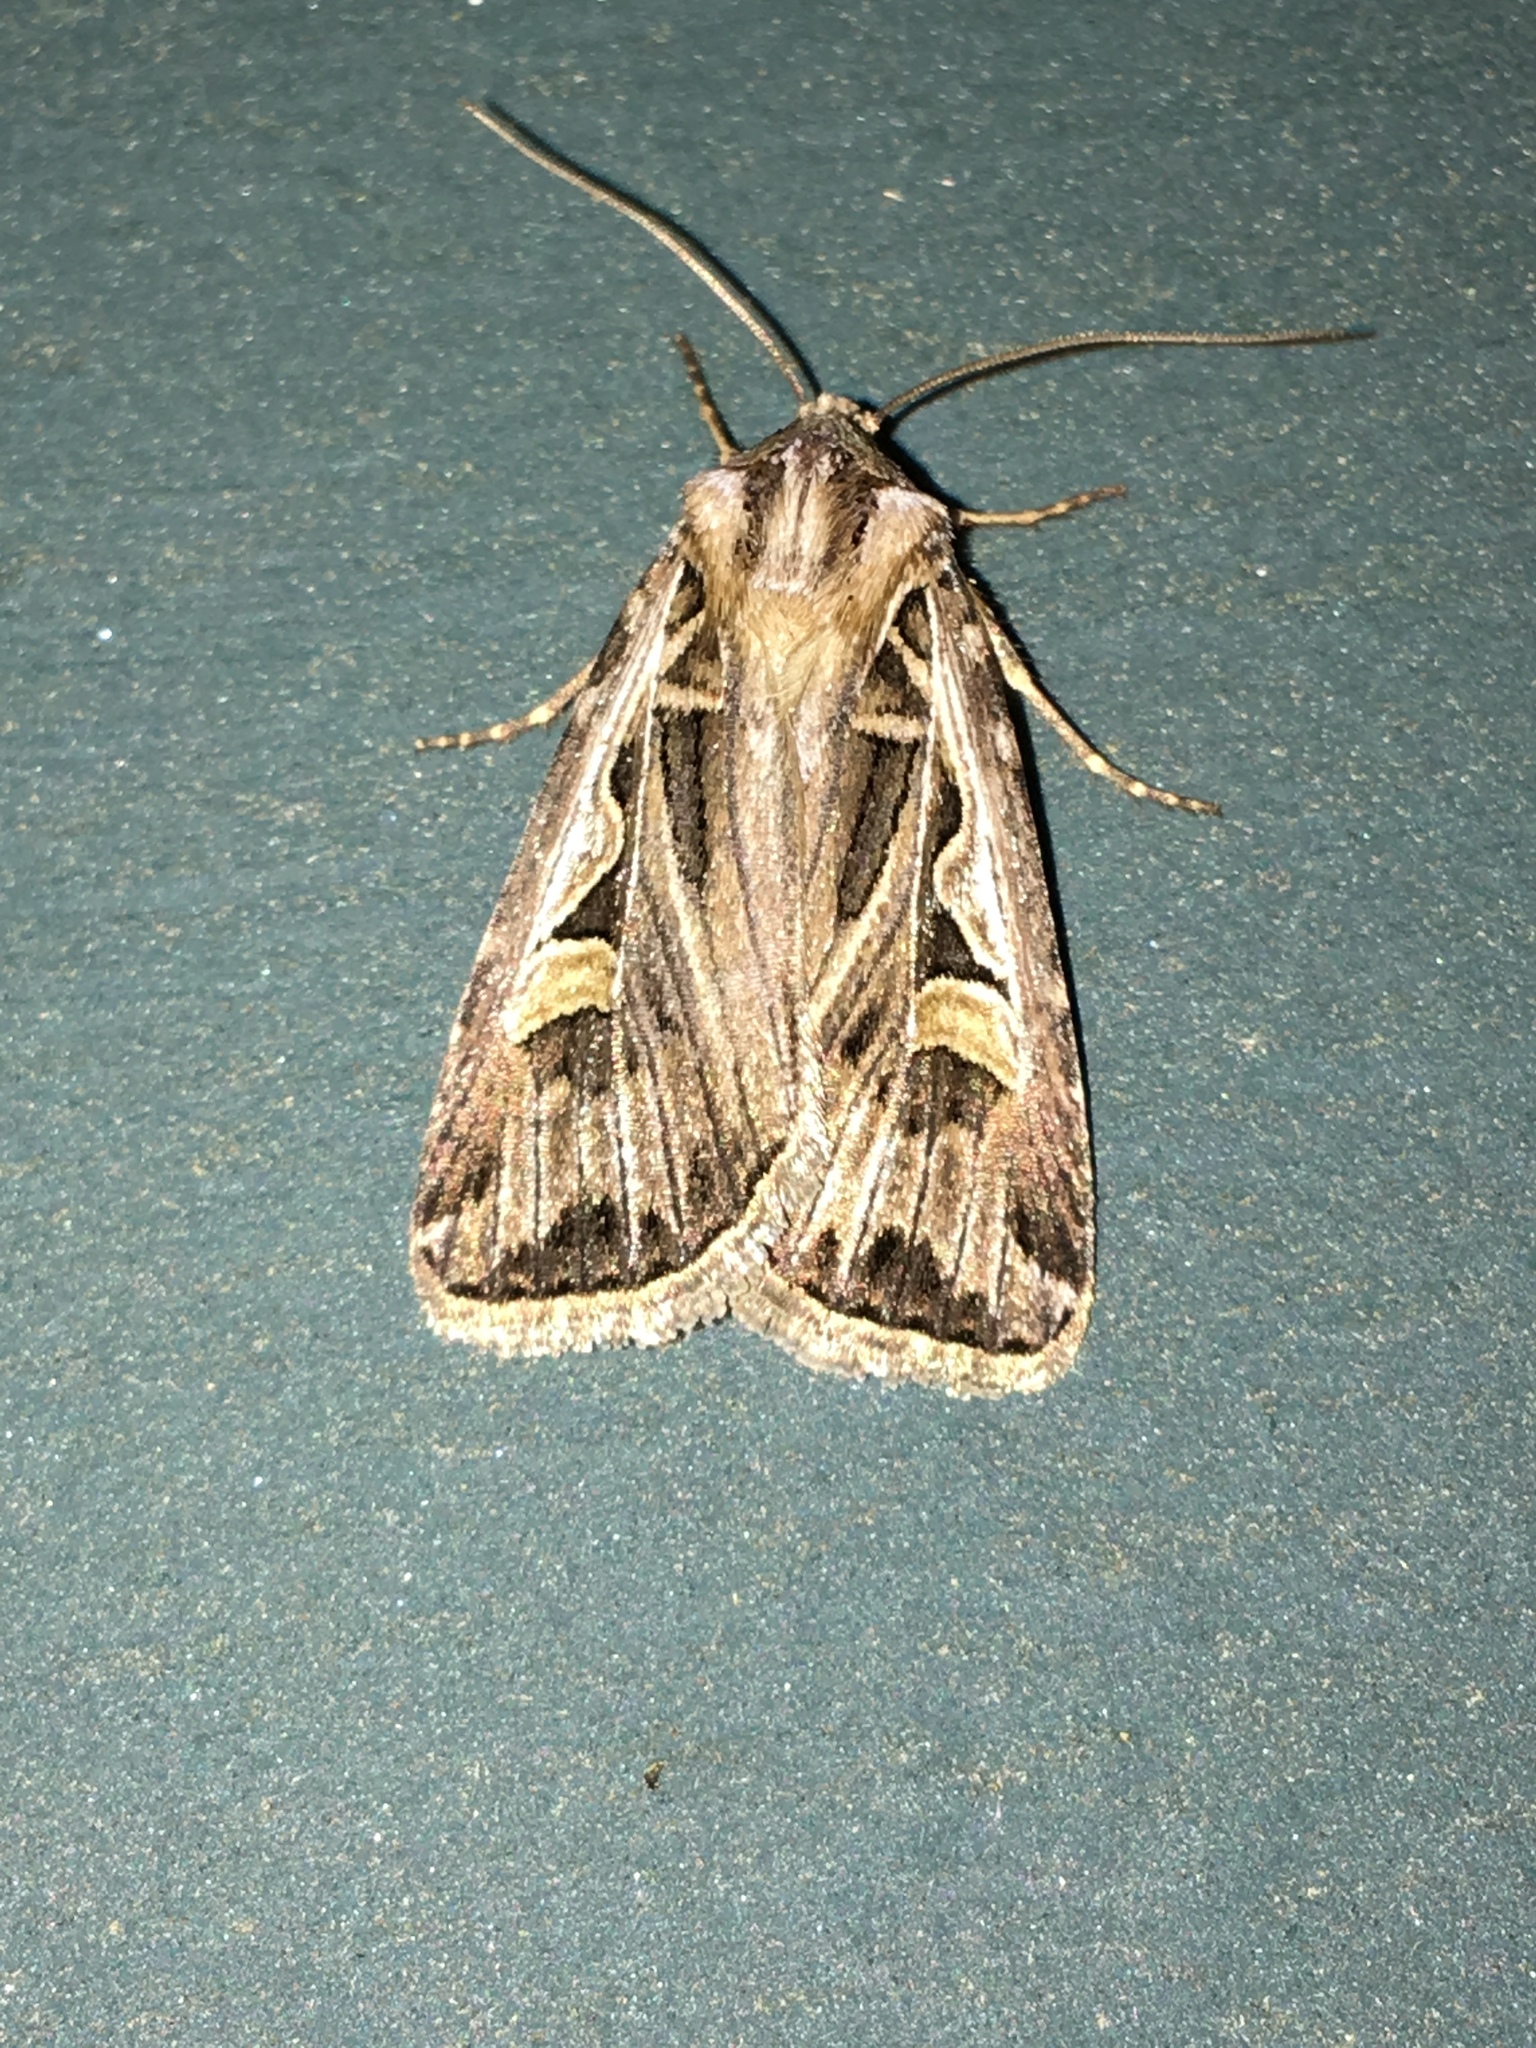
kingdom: Animalia
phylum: Arthropoda
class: Insecta
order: Lepidoptera
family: Noctuidae
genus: Feltia
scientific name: Feltia jaculifera
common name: Dingy cutworm moth
